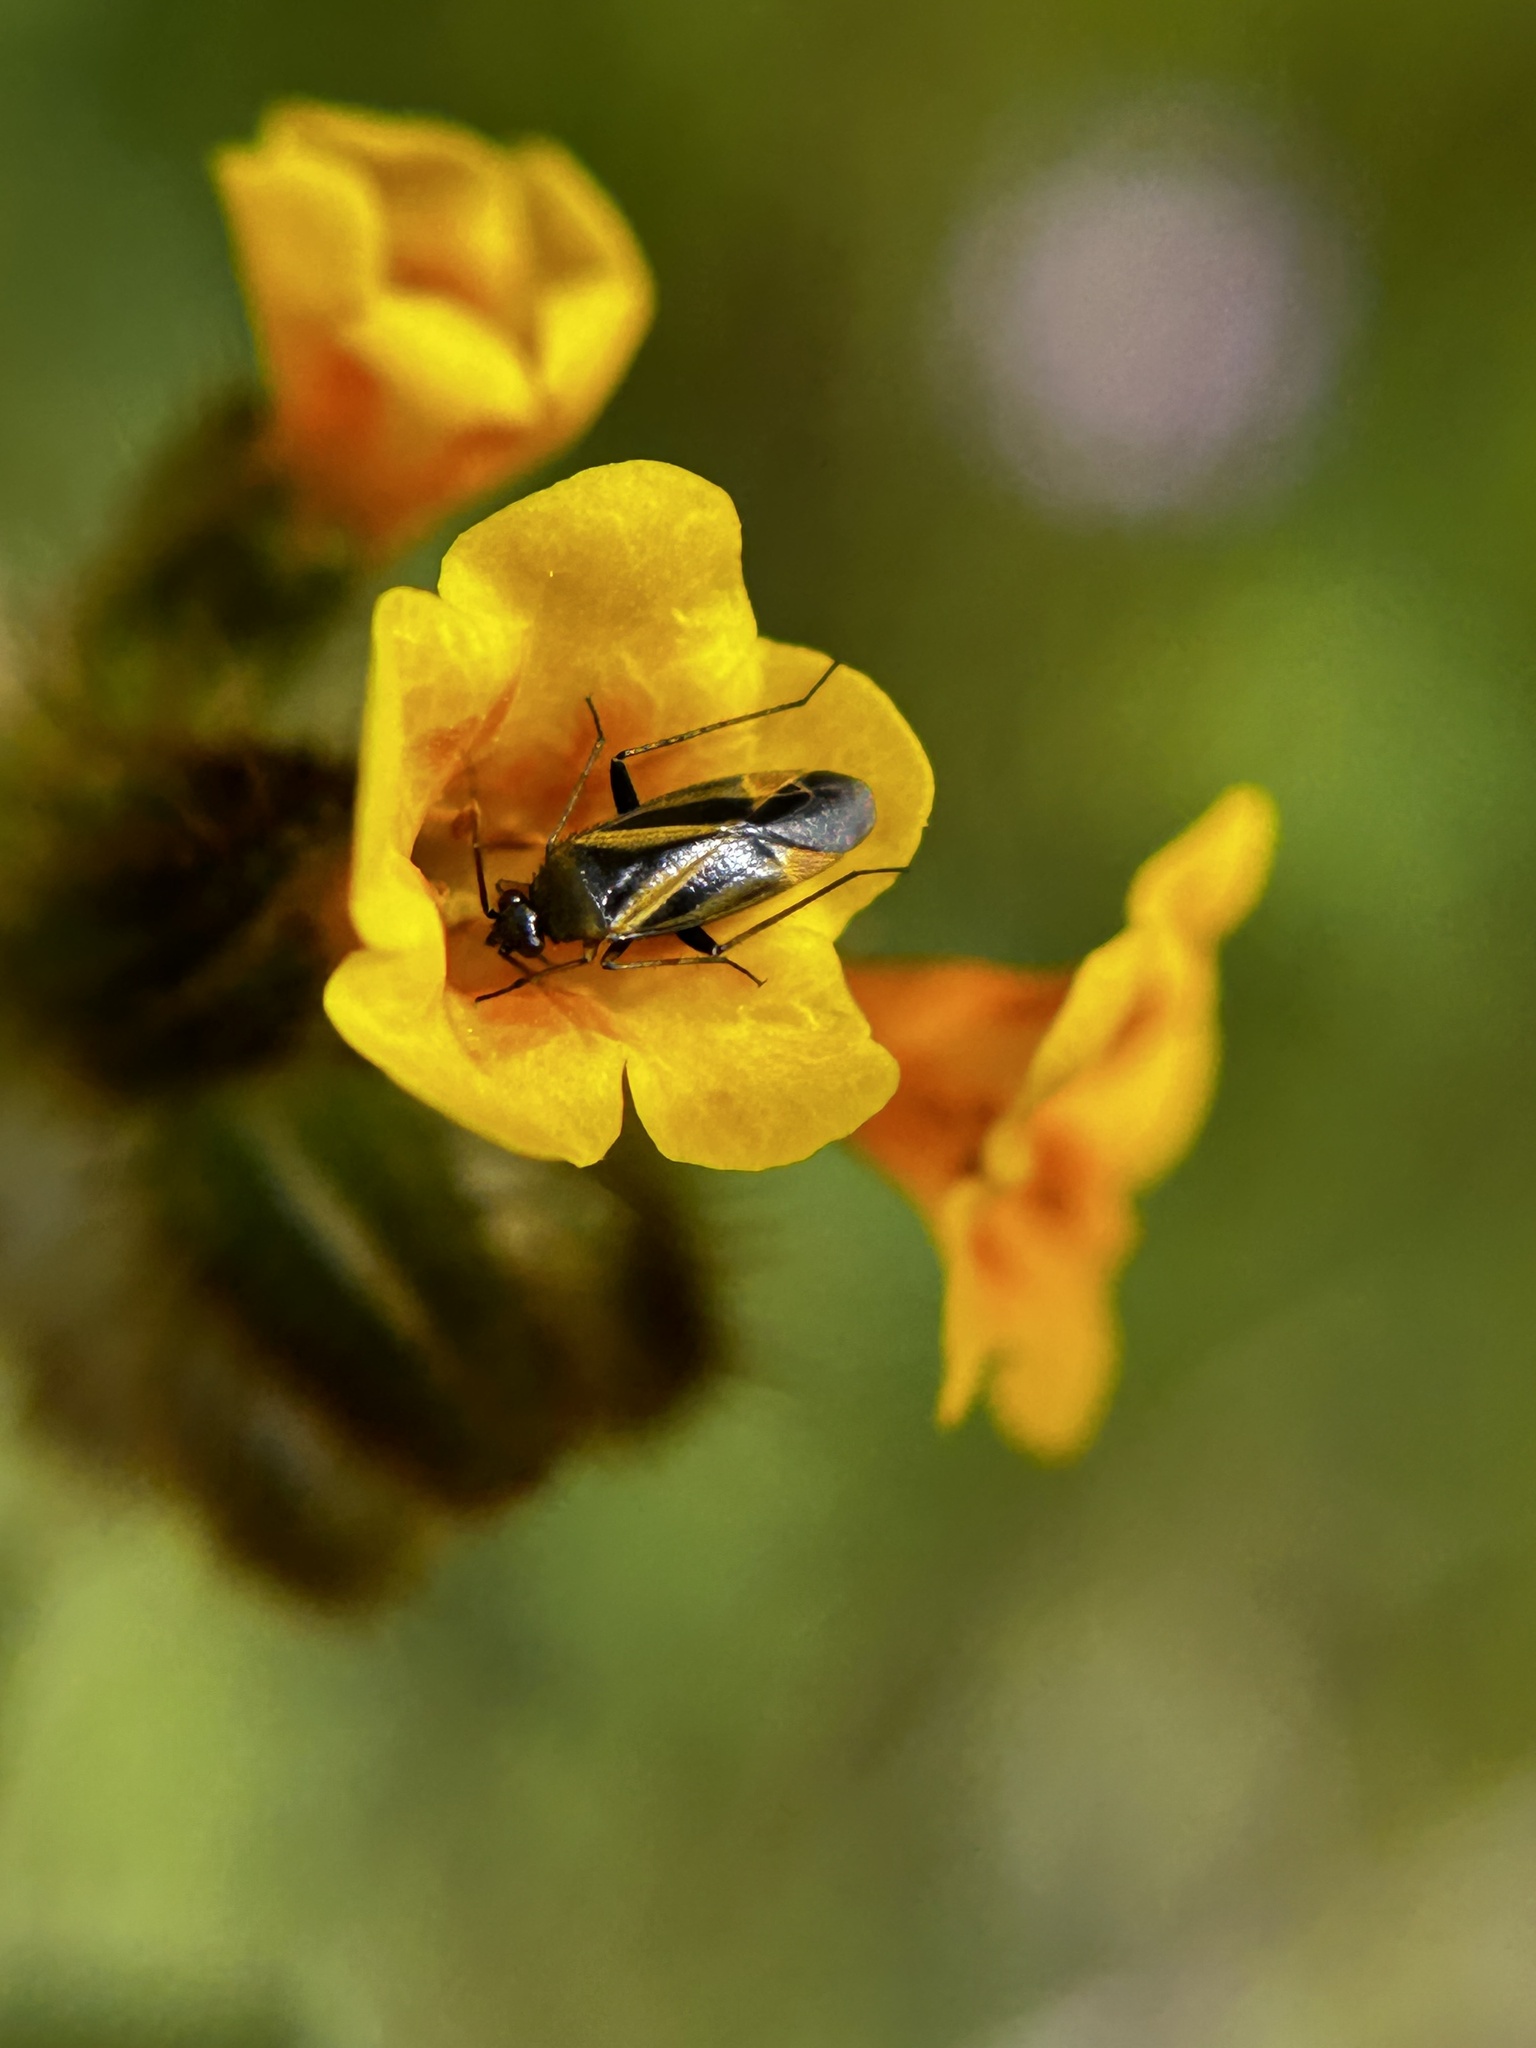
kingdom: Animalia
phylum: Arthropoda
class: Insecta
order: Hemiptera
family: Miridae
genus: Plagiognathus
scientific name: Plagiognathus moerens
